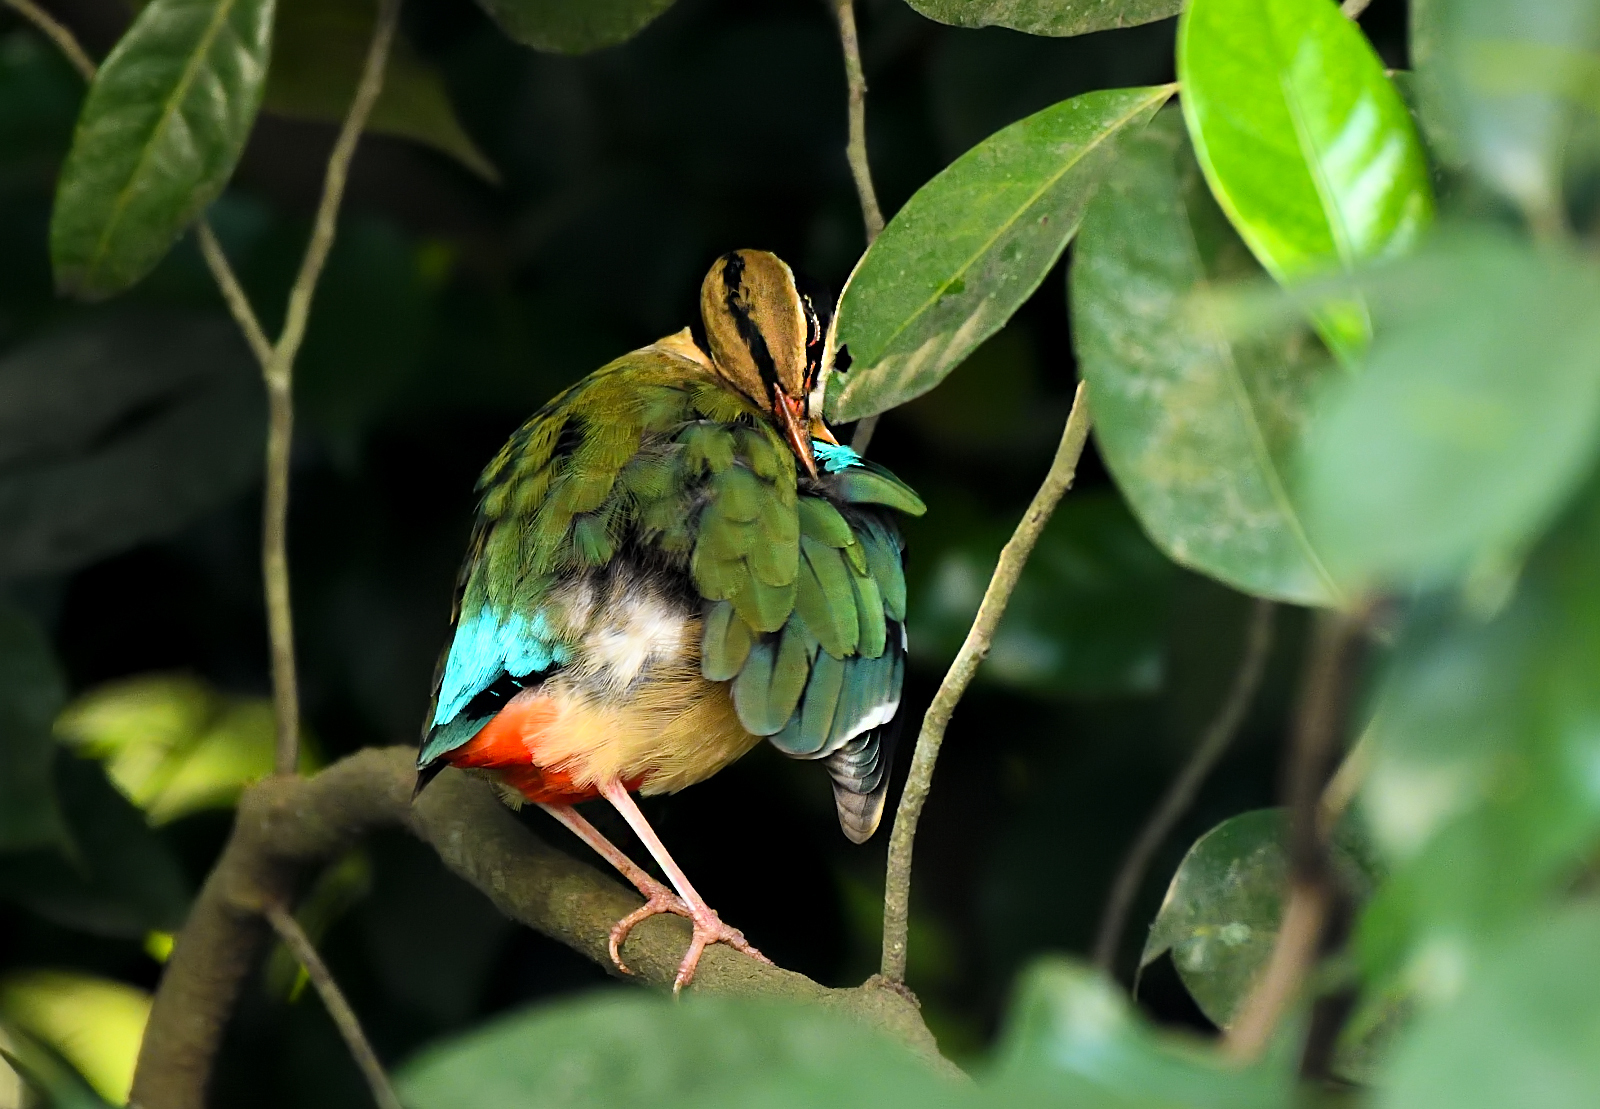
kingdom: Animalia
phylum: Chordata
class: Aves
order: Passeriformes
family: Pittidae
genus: Pitta
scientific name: Pitta brachyura
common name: Indian pitta
